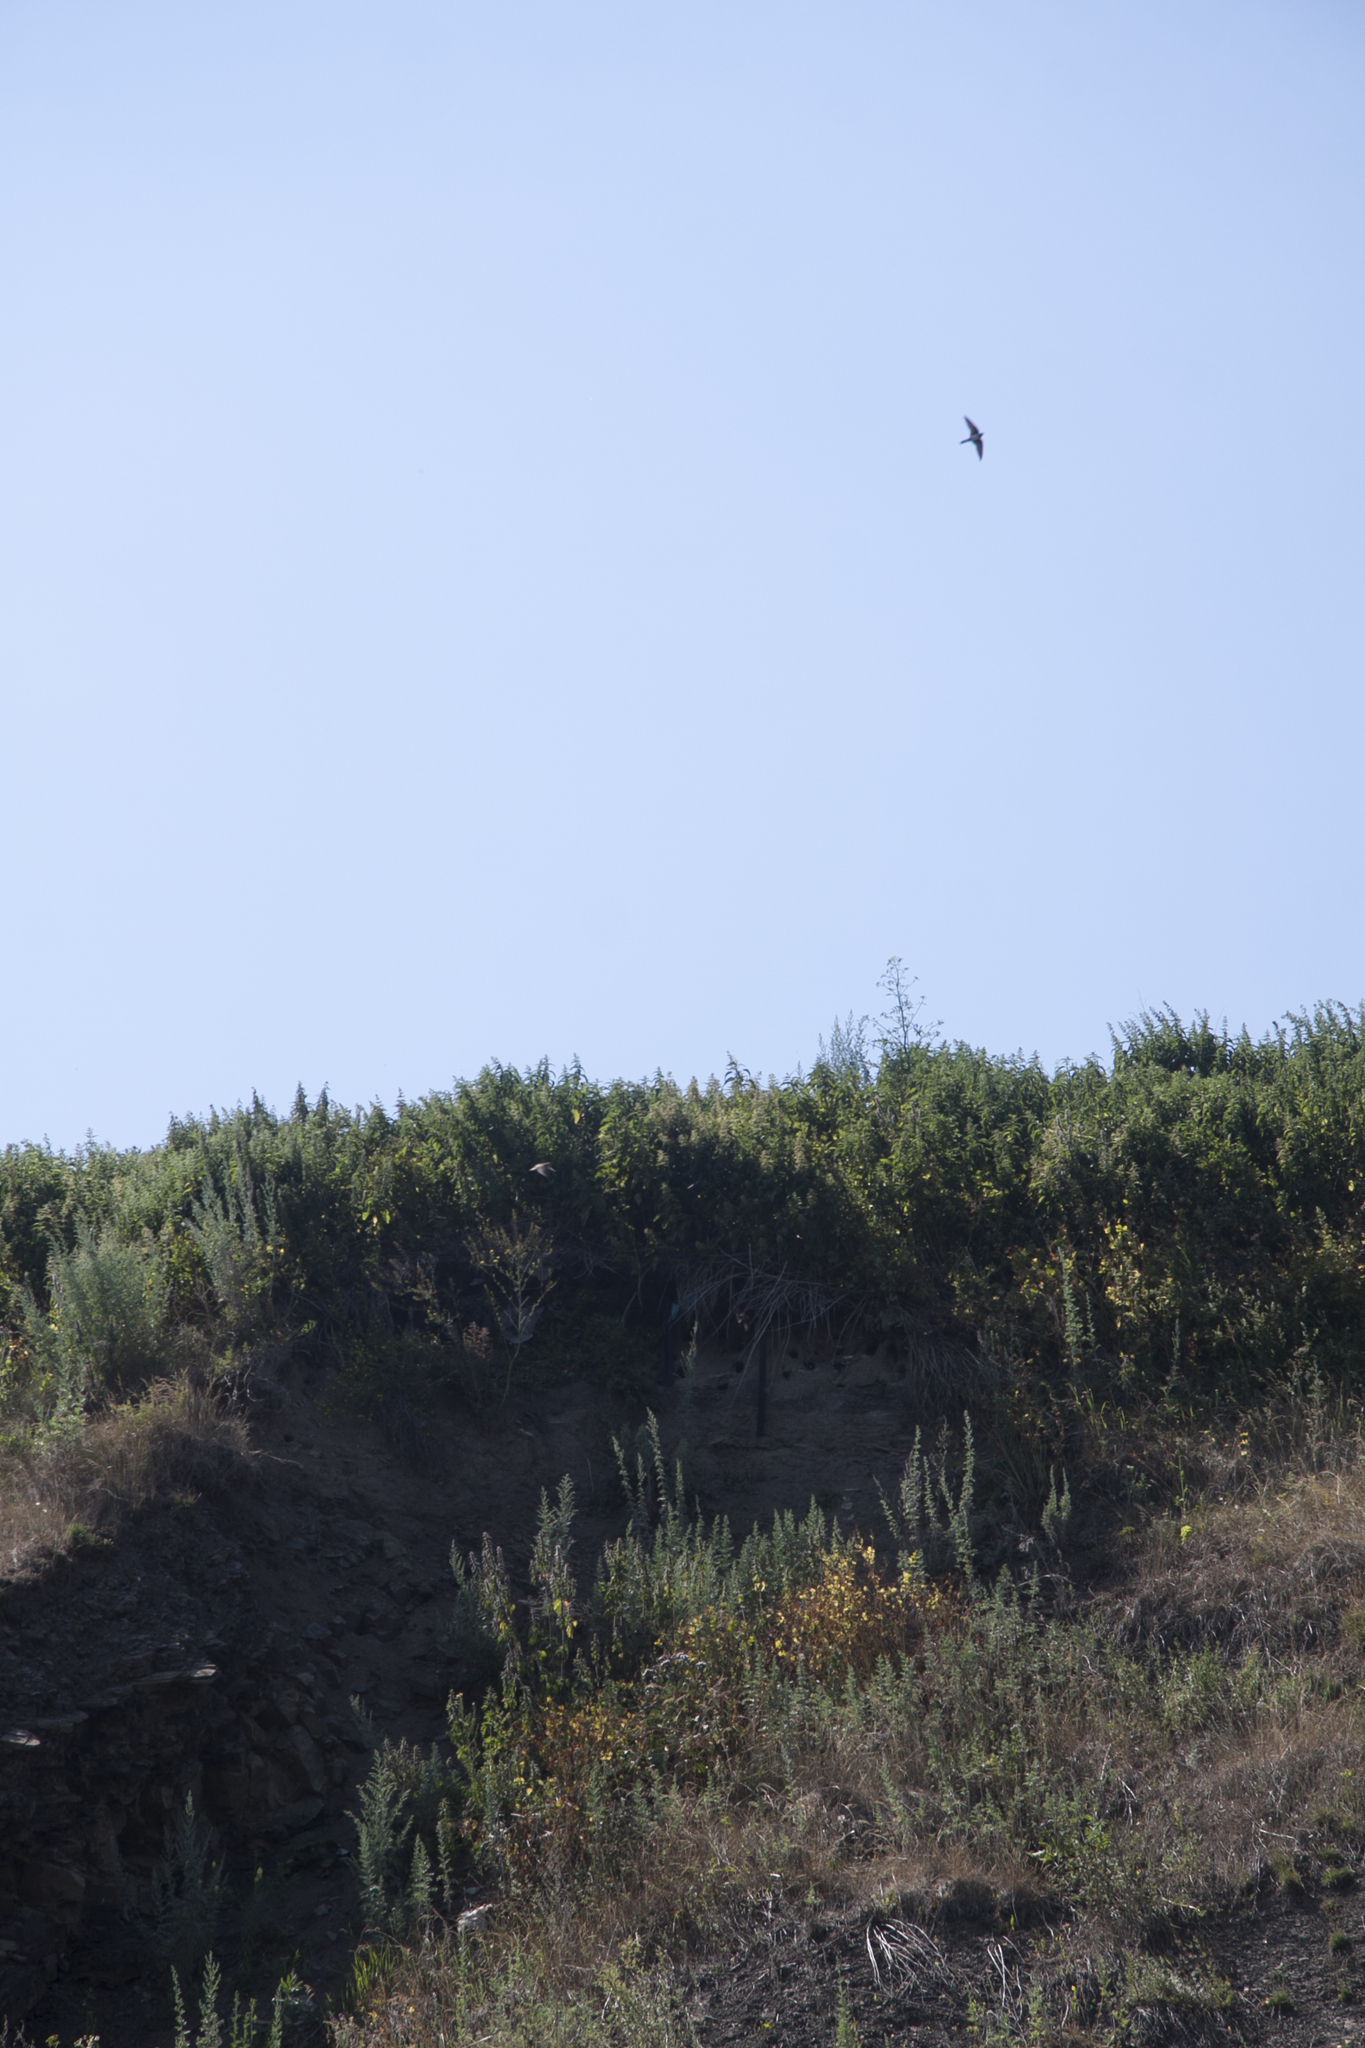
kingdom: Animalia
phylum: Chordata
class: Aves
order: Passeriformes
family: Hirundinidae
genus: Riparia
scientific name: Riparia riparia
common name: Sand martin
